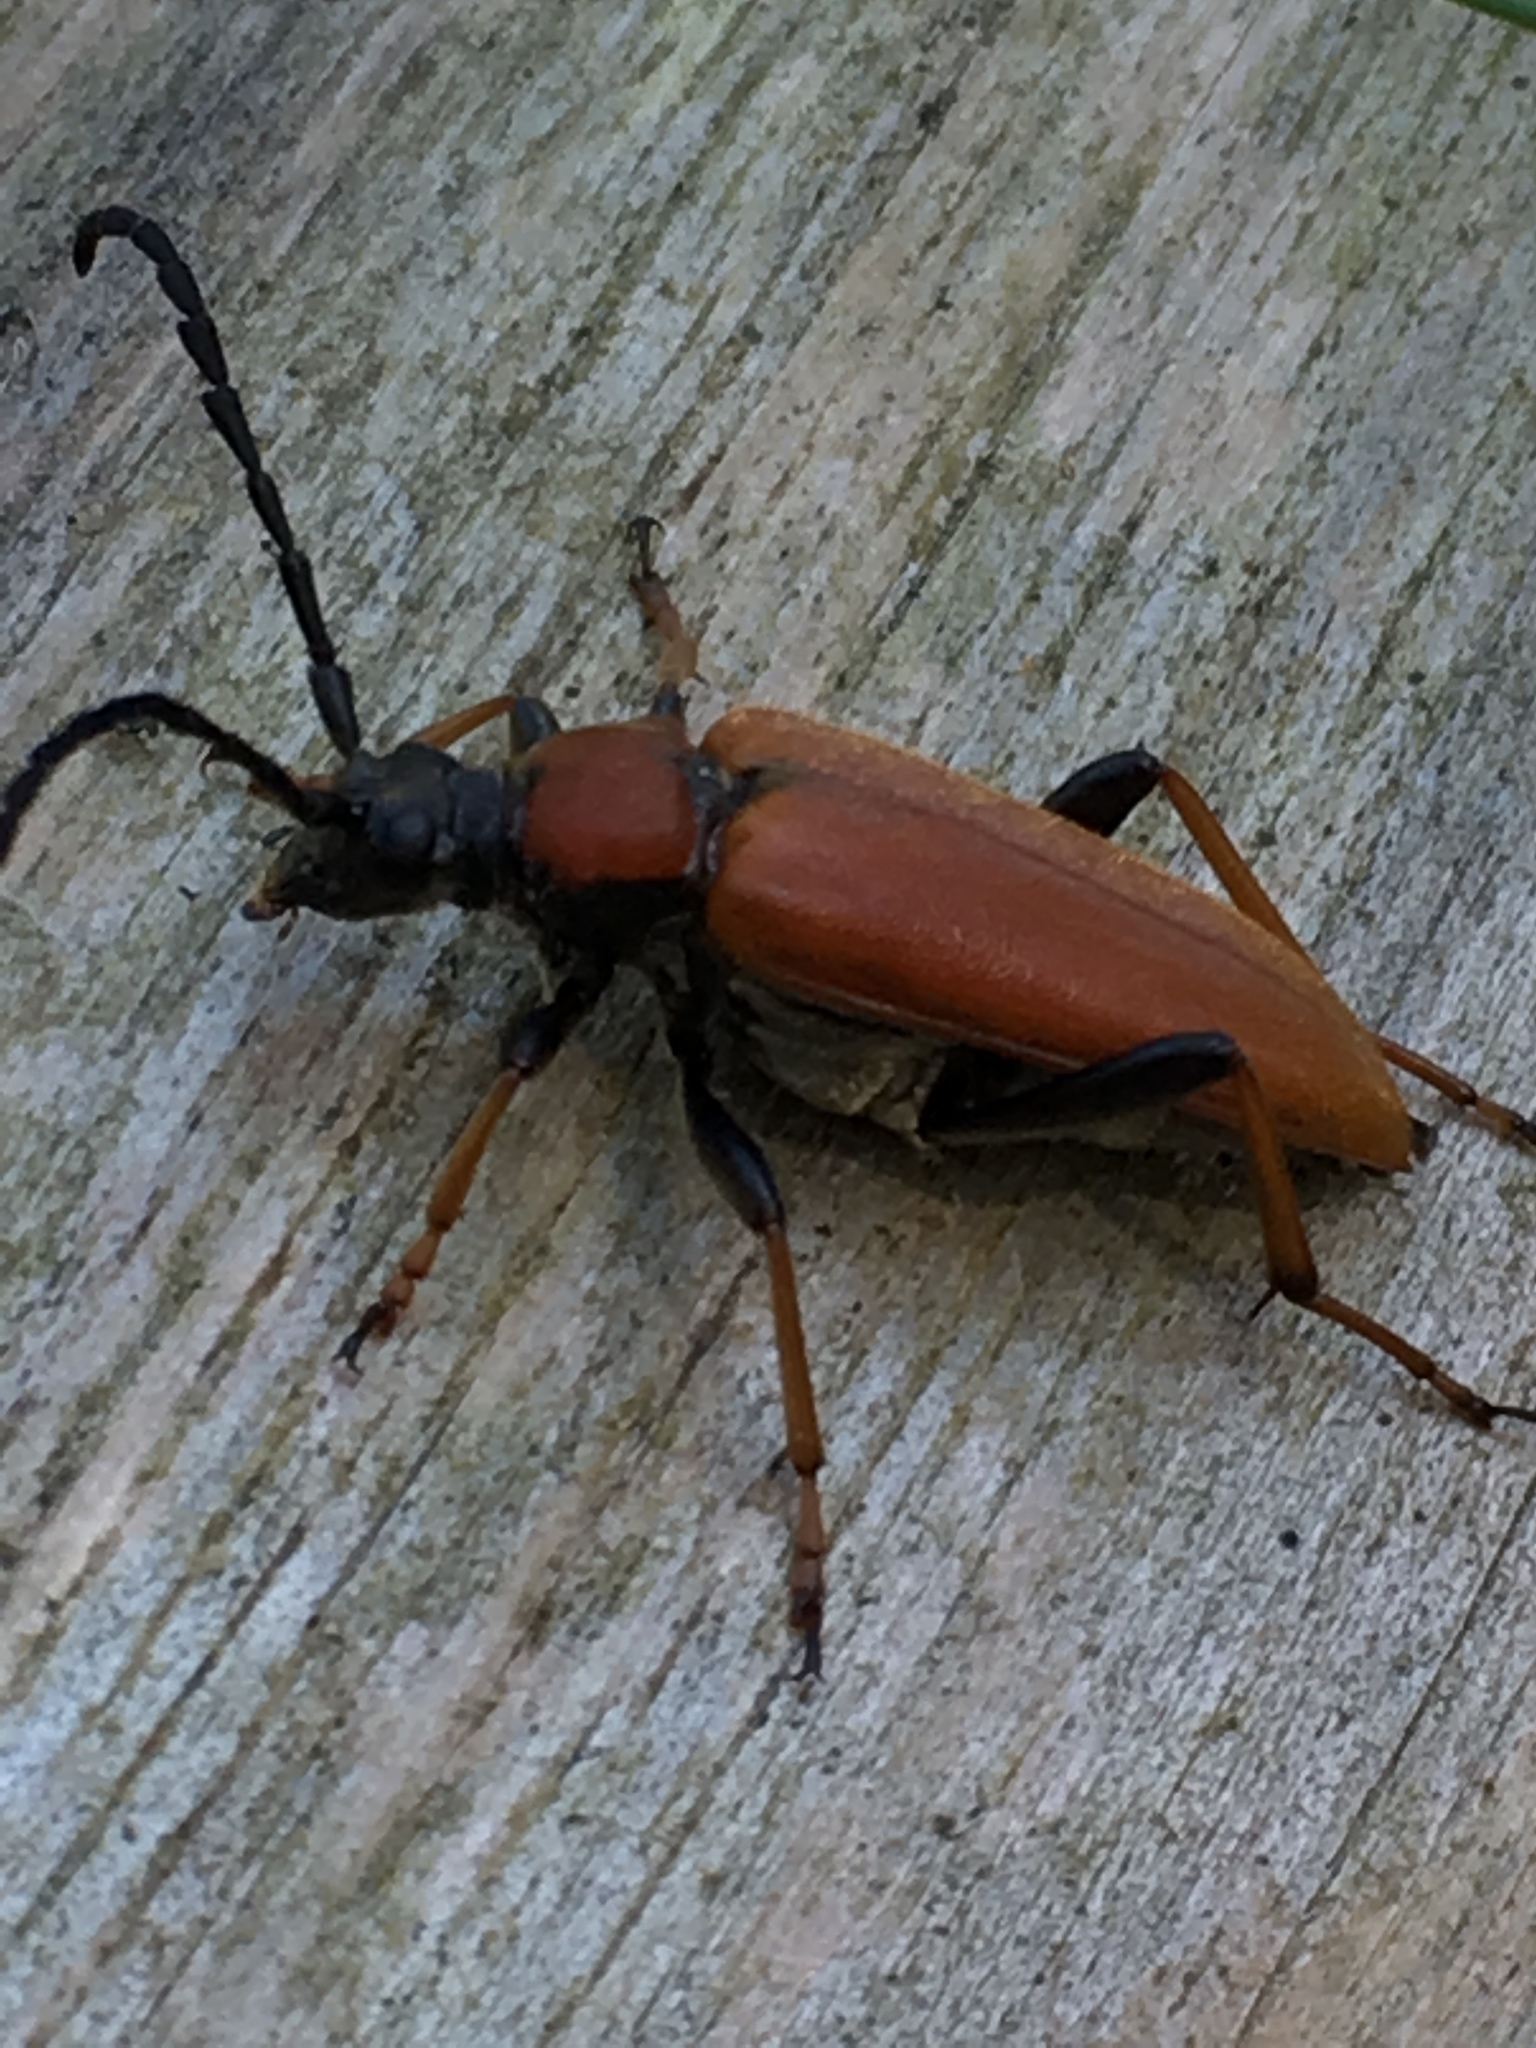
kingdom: Animalia
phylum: Arthropoda
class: Insecta
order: Coleoptera
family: Cerambycidae
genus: Stictoleptura
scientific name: Stictoleptura rubra
